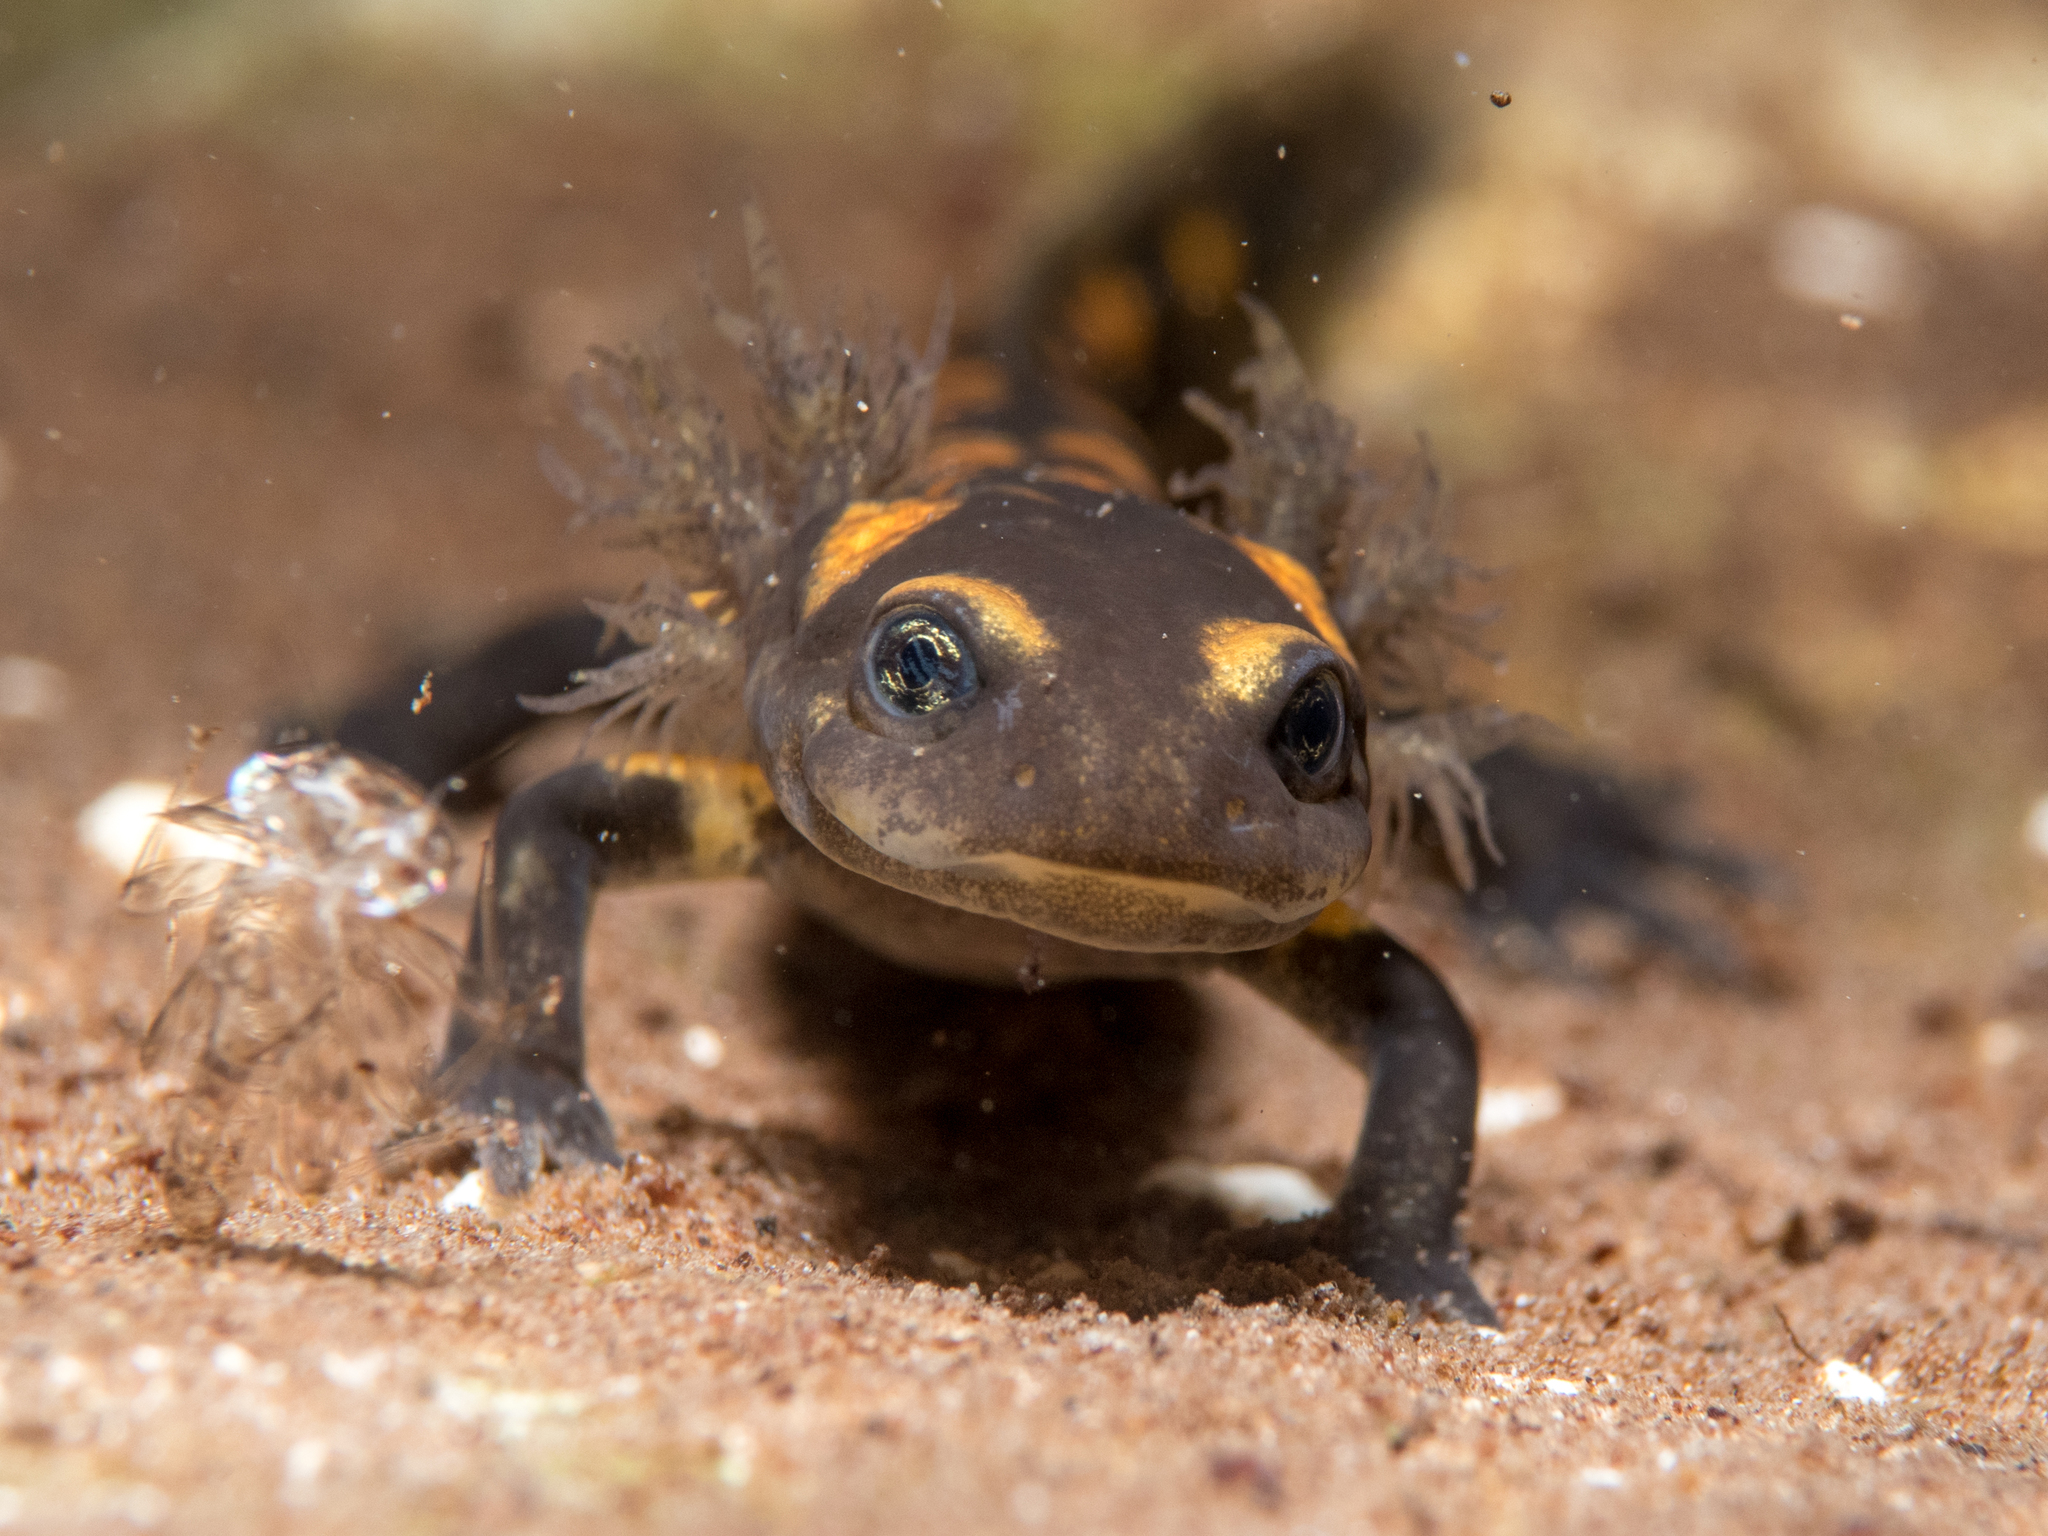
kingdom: Animalia
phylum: Chordata
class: Amphibia
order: Caudata
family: Salamandridae
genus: Salamandra
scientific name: Salamandra salamandra
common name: Fire salamander
